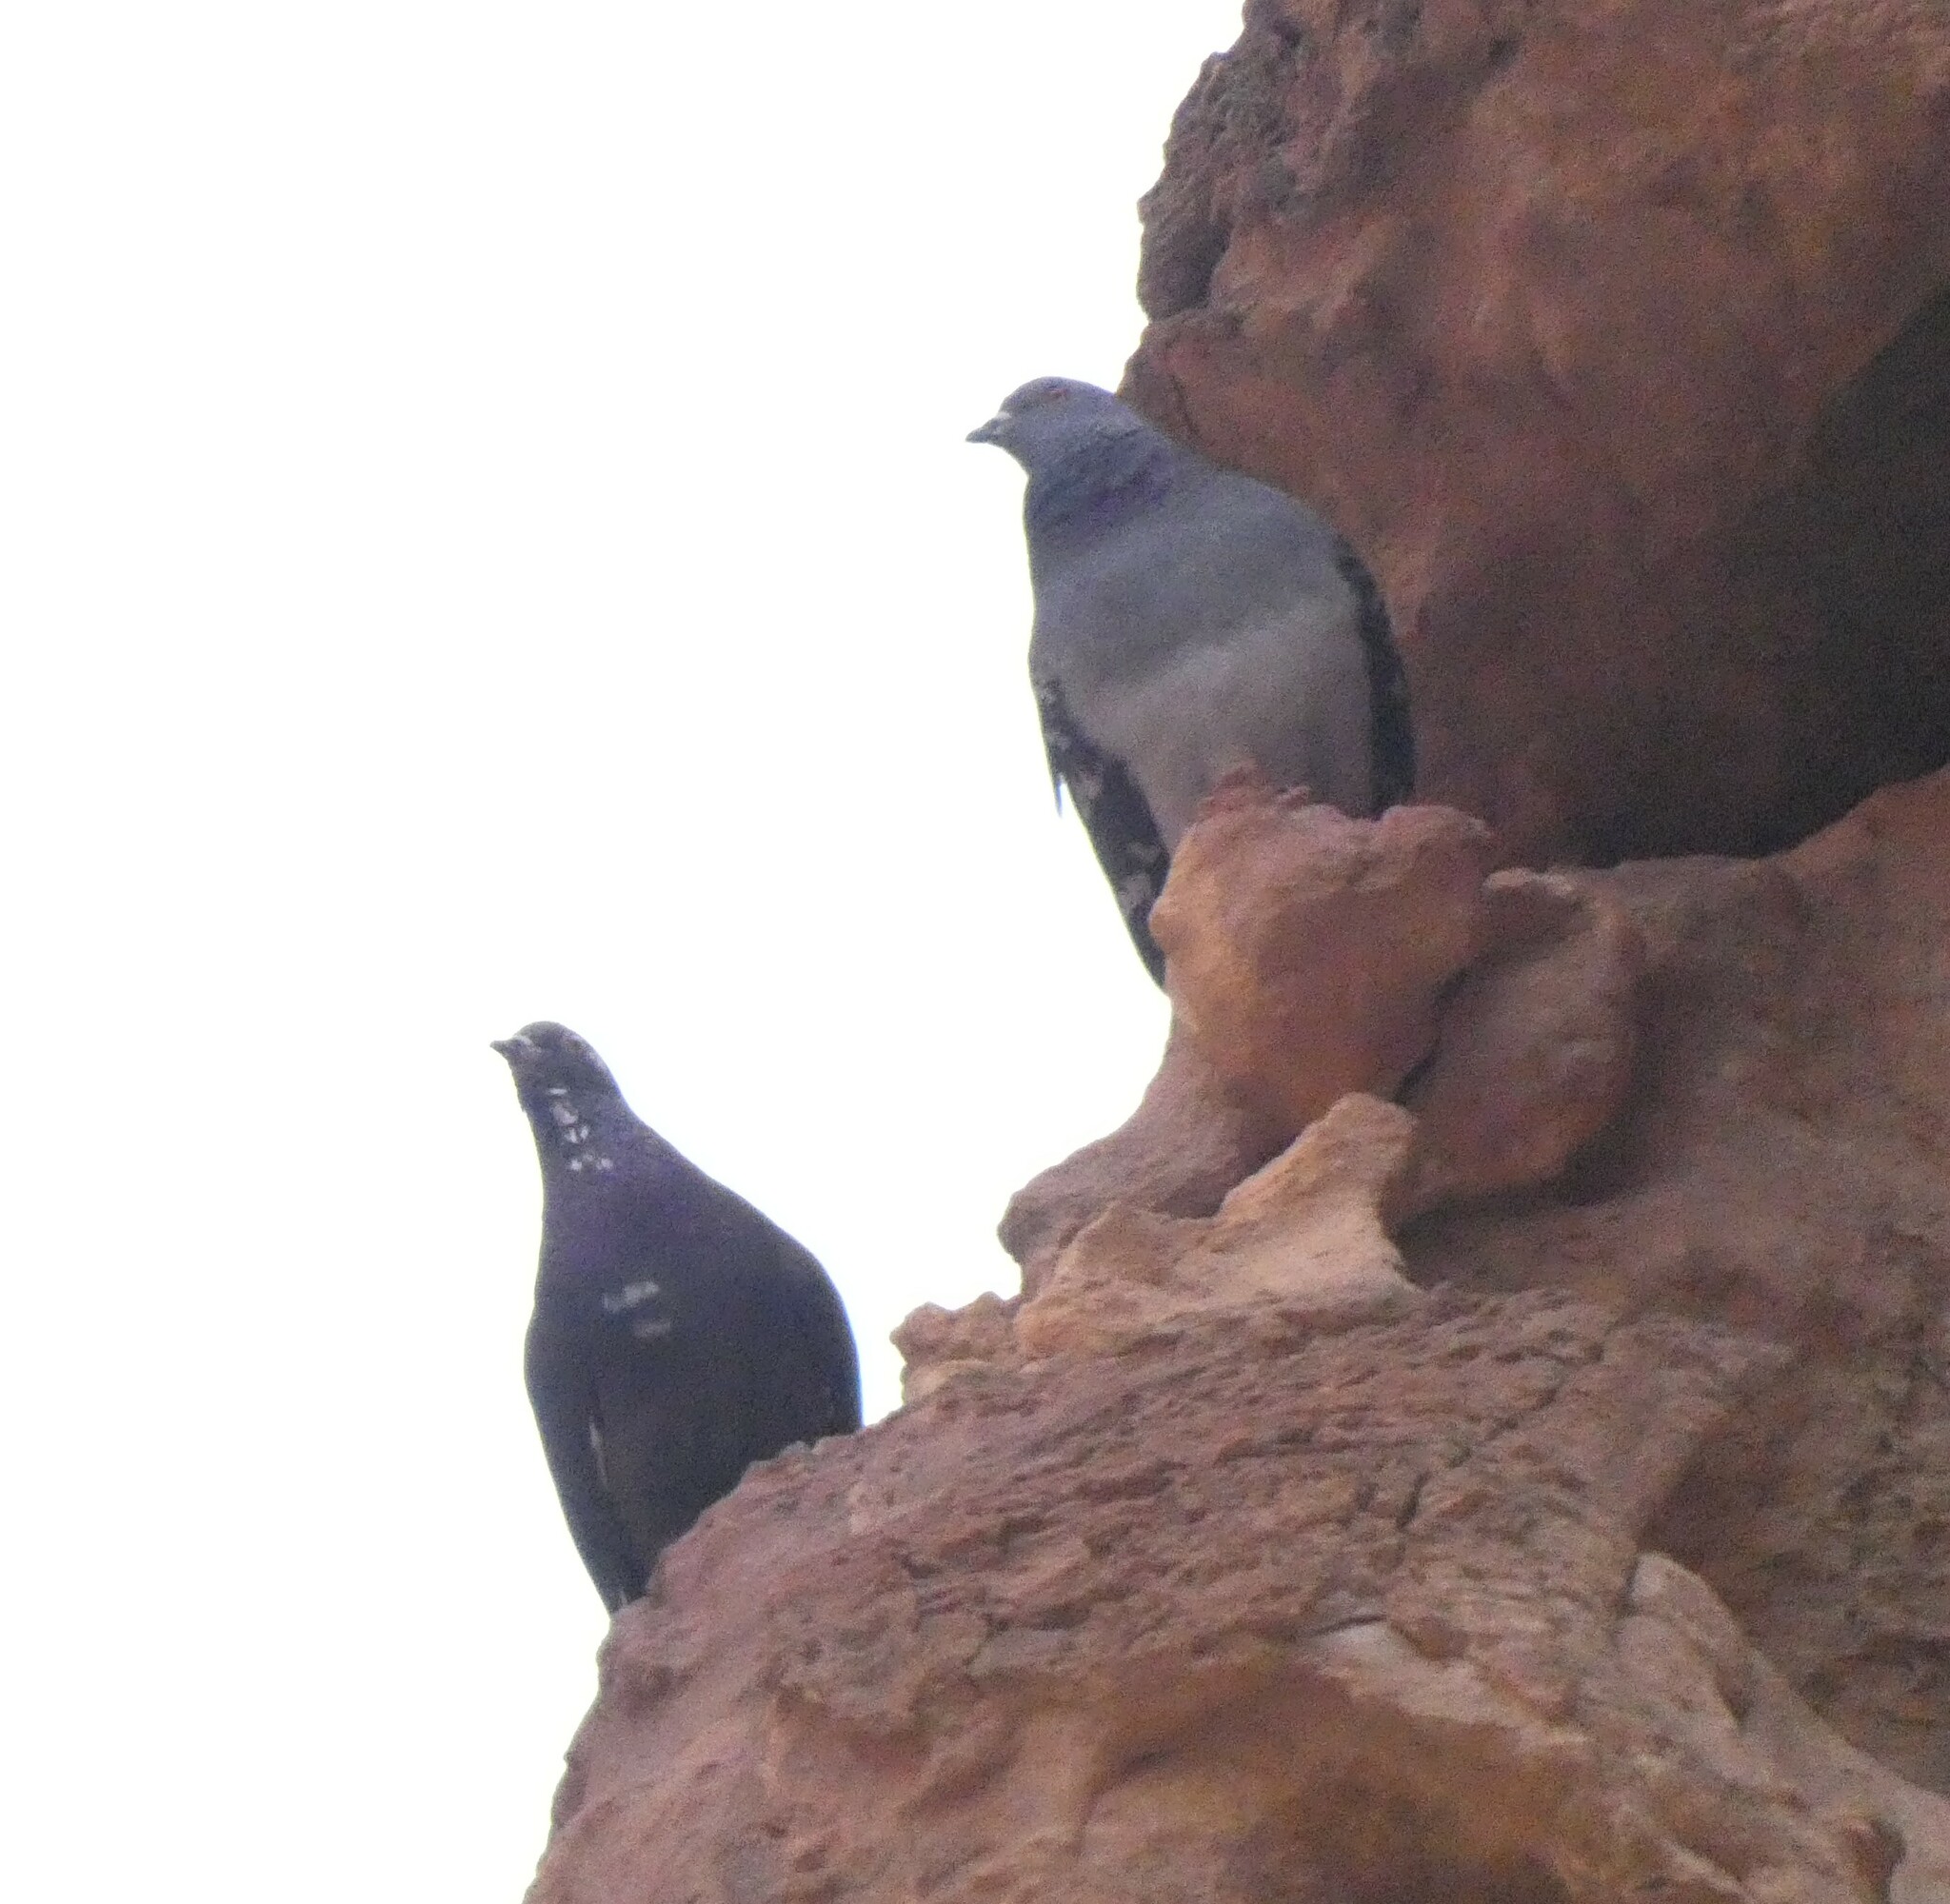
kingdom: Animalia
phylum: Chordata
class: Aves
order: Columbiformes
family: Columbidae
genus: Columba
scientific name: Columba livia
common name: Rock pigeon
